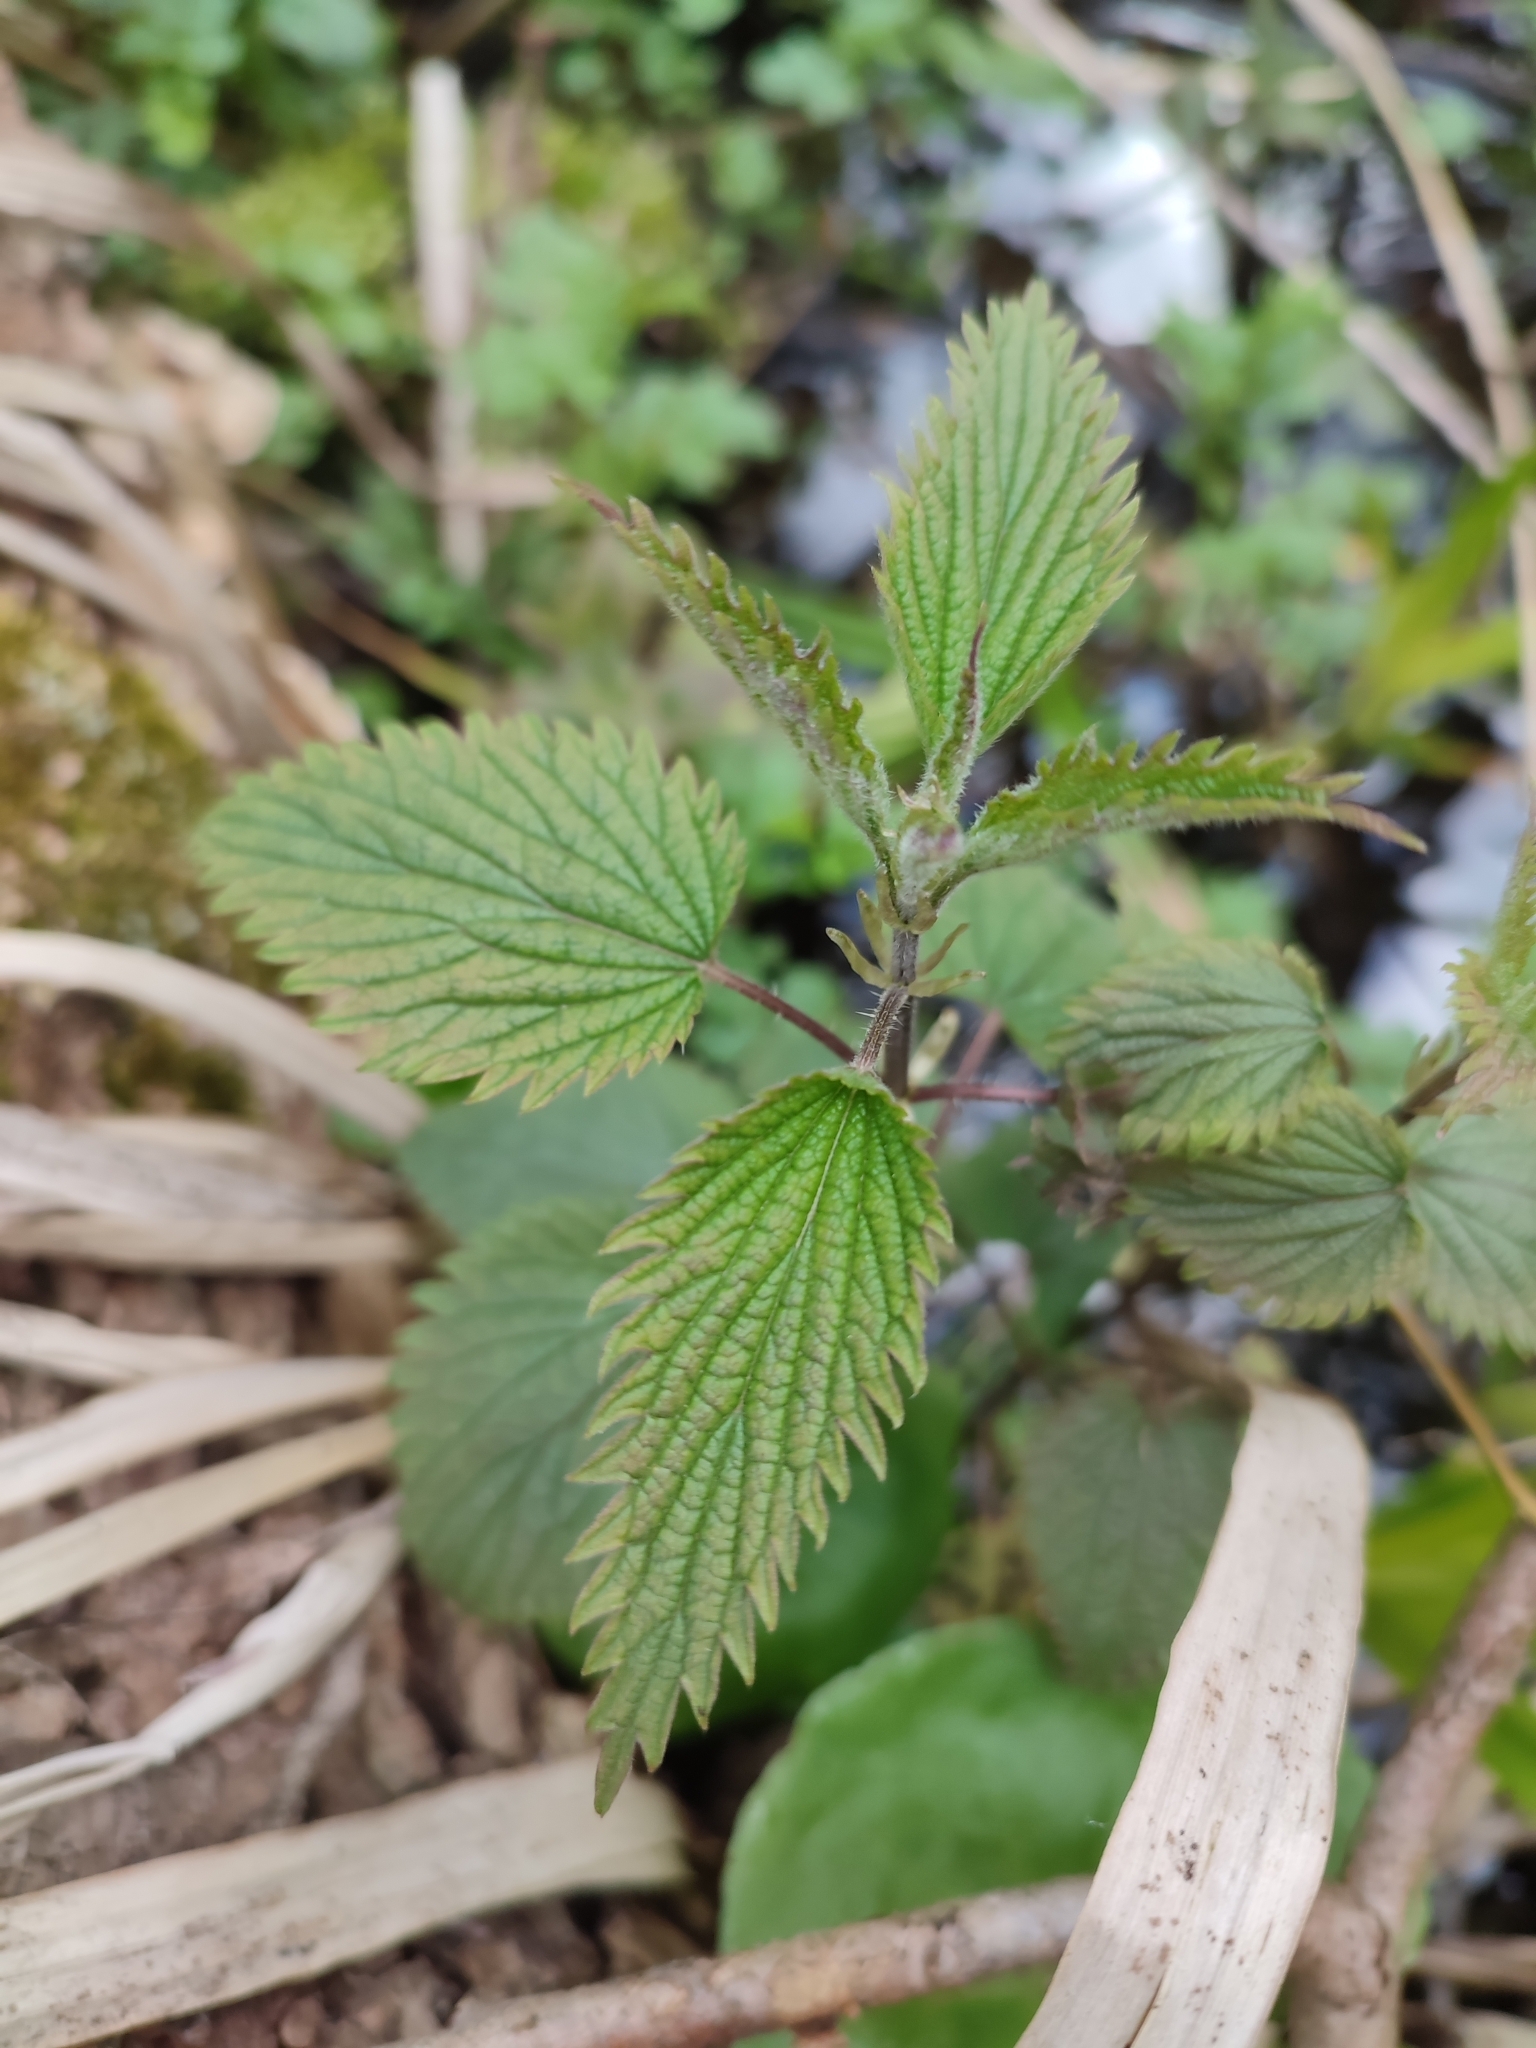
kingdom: Plantae
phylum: Tracheophyta
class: Magnoliopsida
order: Rosales
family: Urticaceae
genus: Urtica
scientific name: Urtica galeopsifolia
